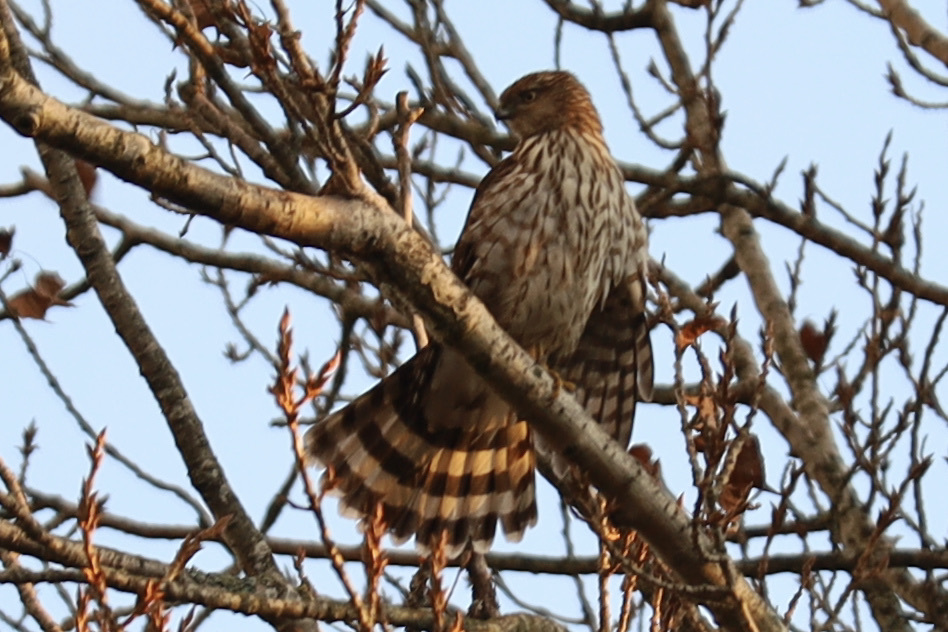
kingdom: Animalia
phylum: Chordata
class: Aves
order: Accipitriformes
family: Accipitridae
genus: Accipiter
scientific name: Accipiter cooperii
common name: Cooper's hawk
